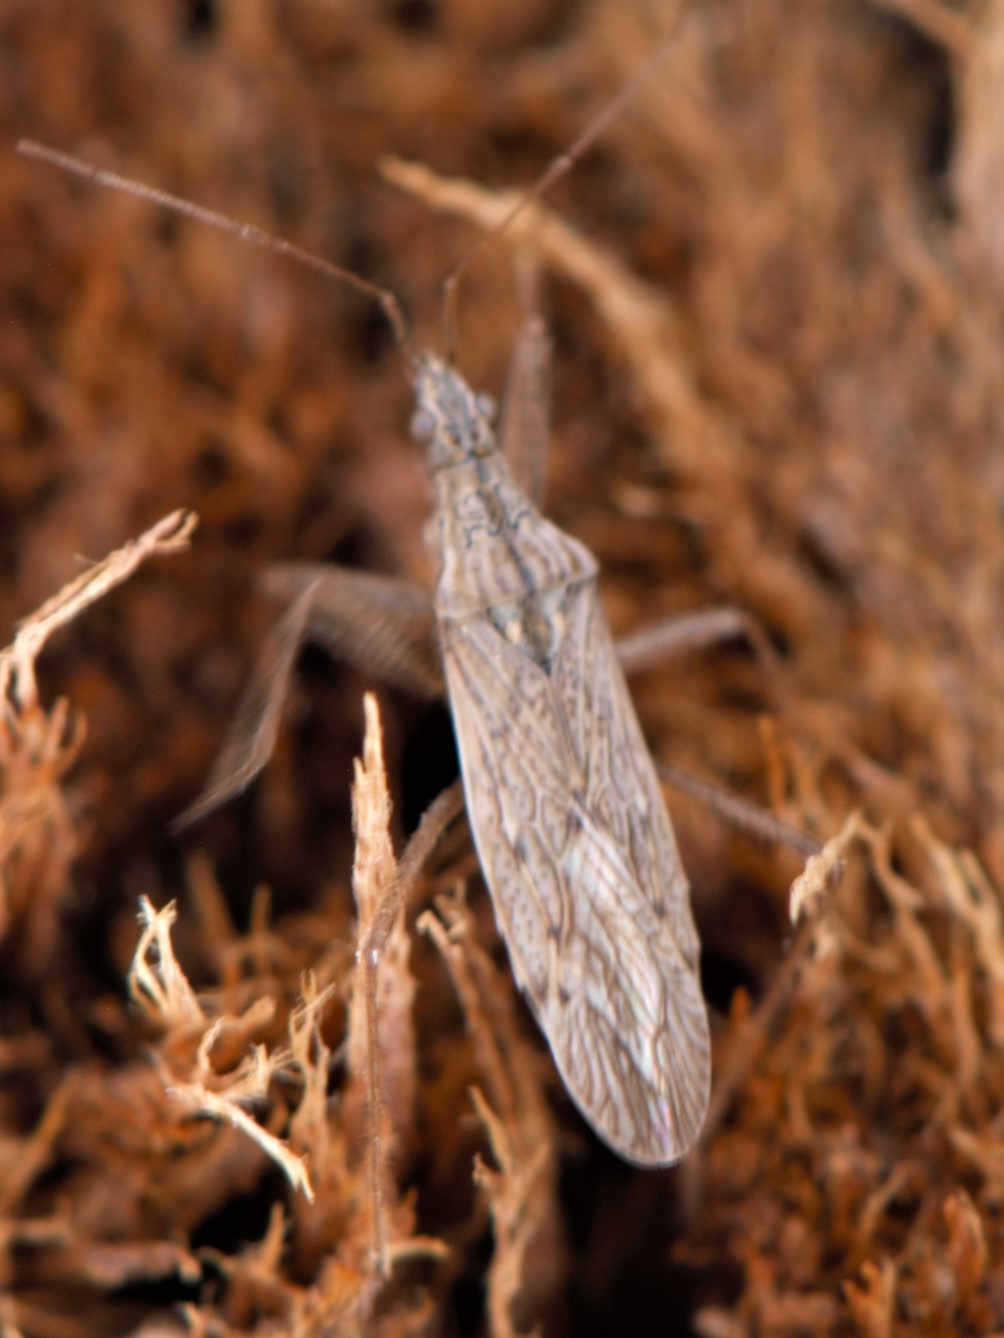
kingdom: Animalia
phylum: Arthropoda
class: Insecta
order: Hemiptera
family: Nabidae
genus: Reduviolus
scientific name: Reduviolus
